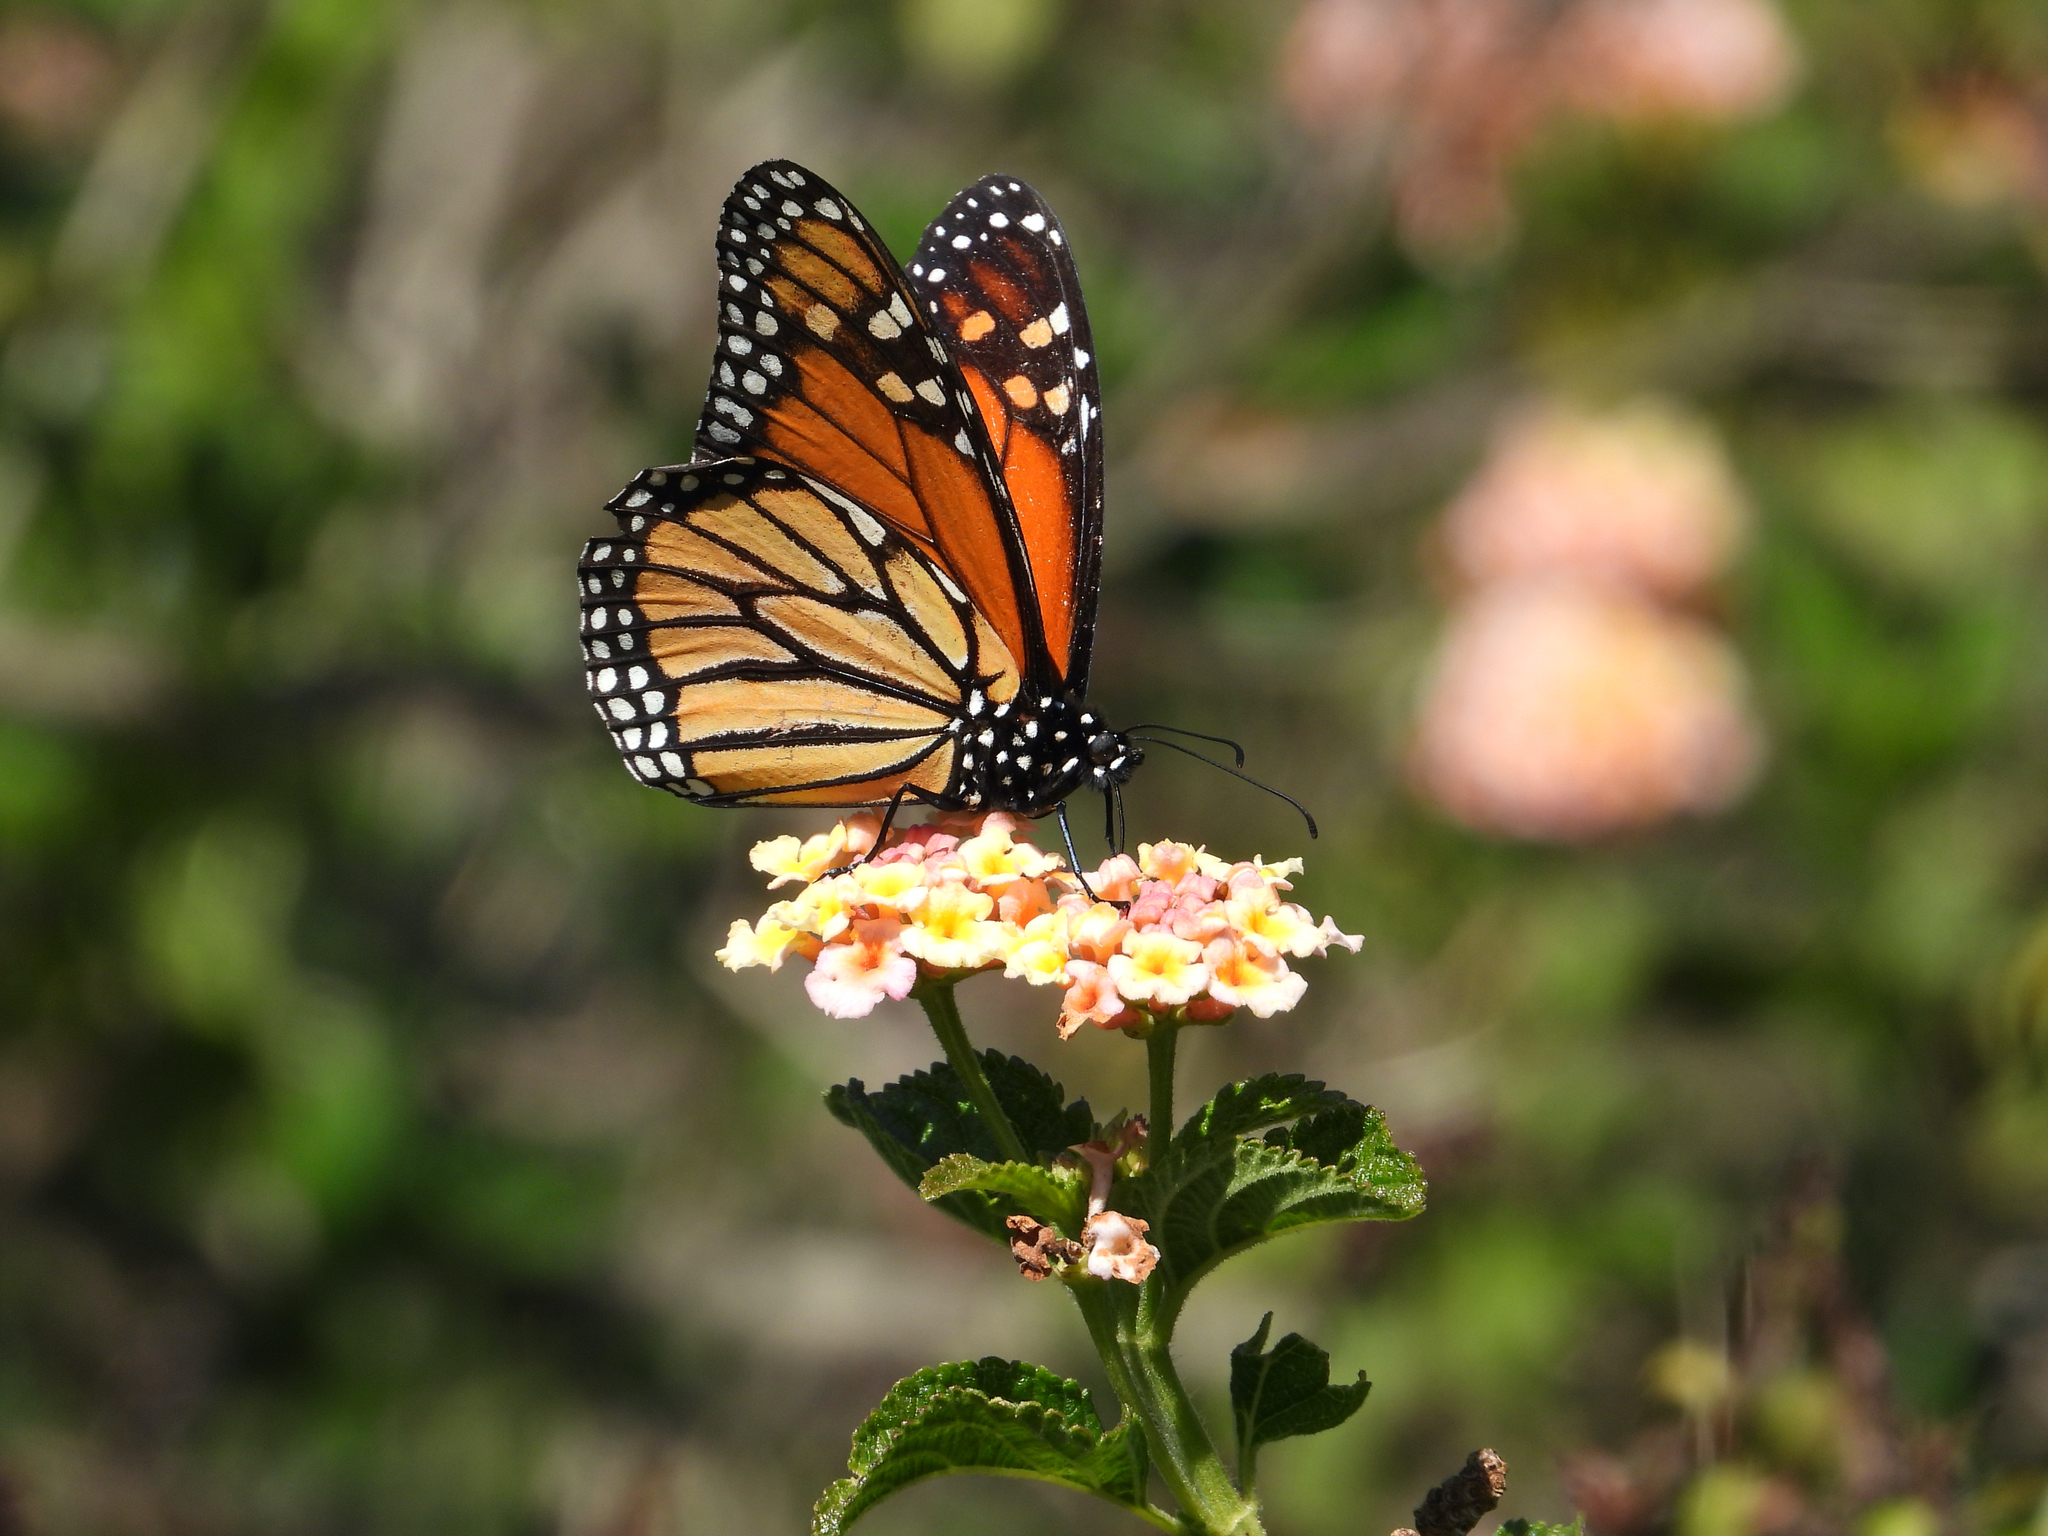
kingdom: Animalia
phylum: Arthropoda
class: Insecta
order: Lepidoptera
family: Nymphalidae
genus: Danaus
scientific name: Danaus plexippus
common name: Monarch
